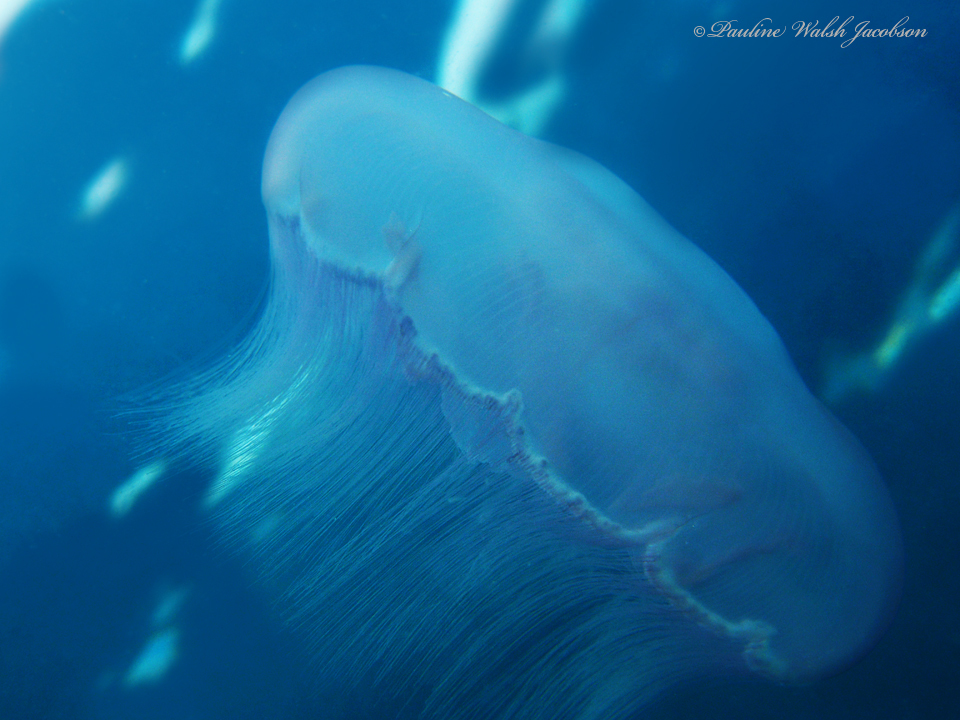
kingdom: Animalia
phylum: Cnidaria
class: Scyphozoa
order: Semaeostomeae
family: Ulmaridae
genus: Aurelia
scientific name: Aurelia marginalis
